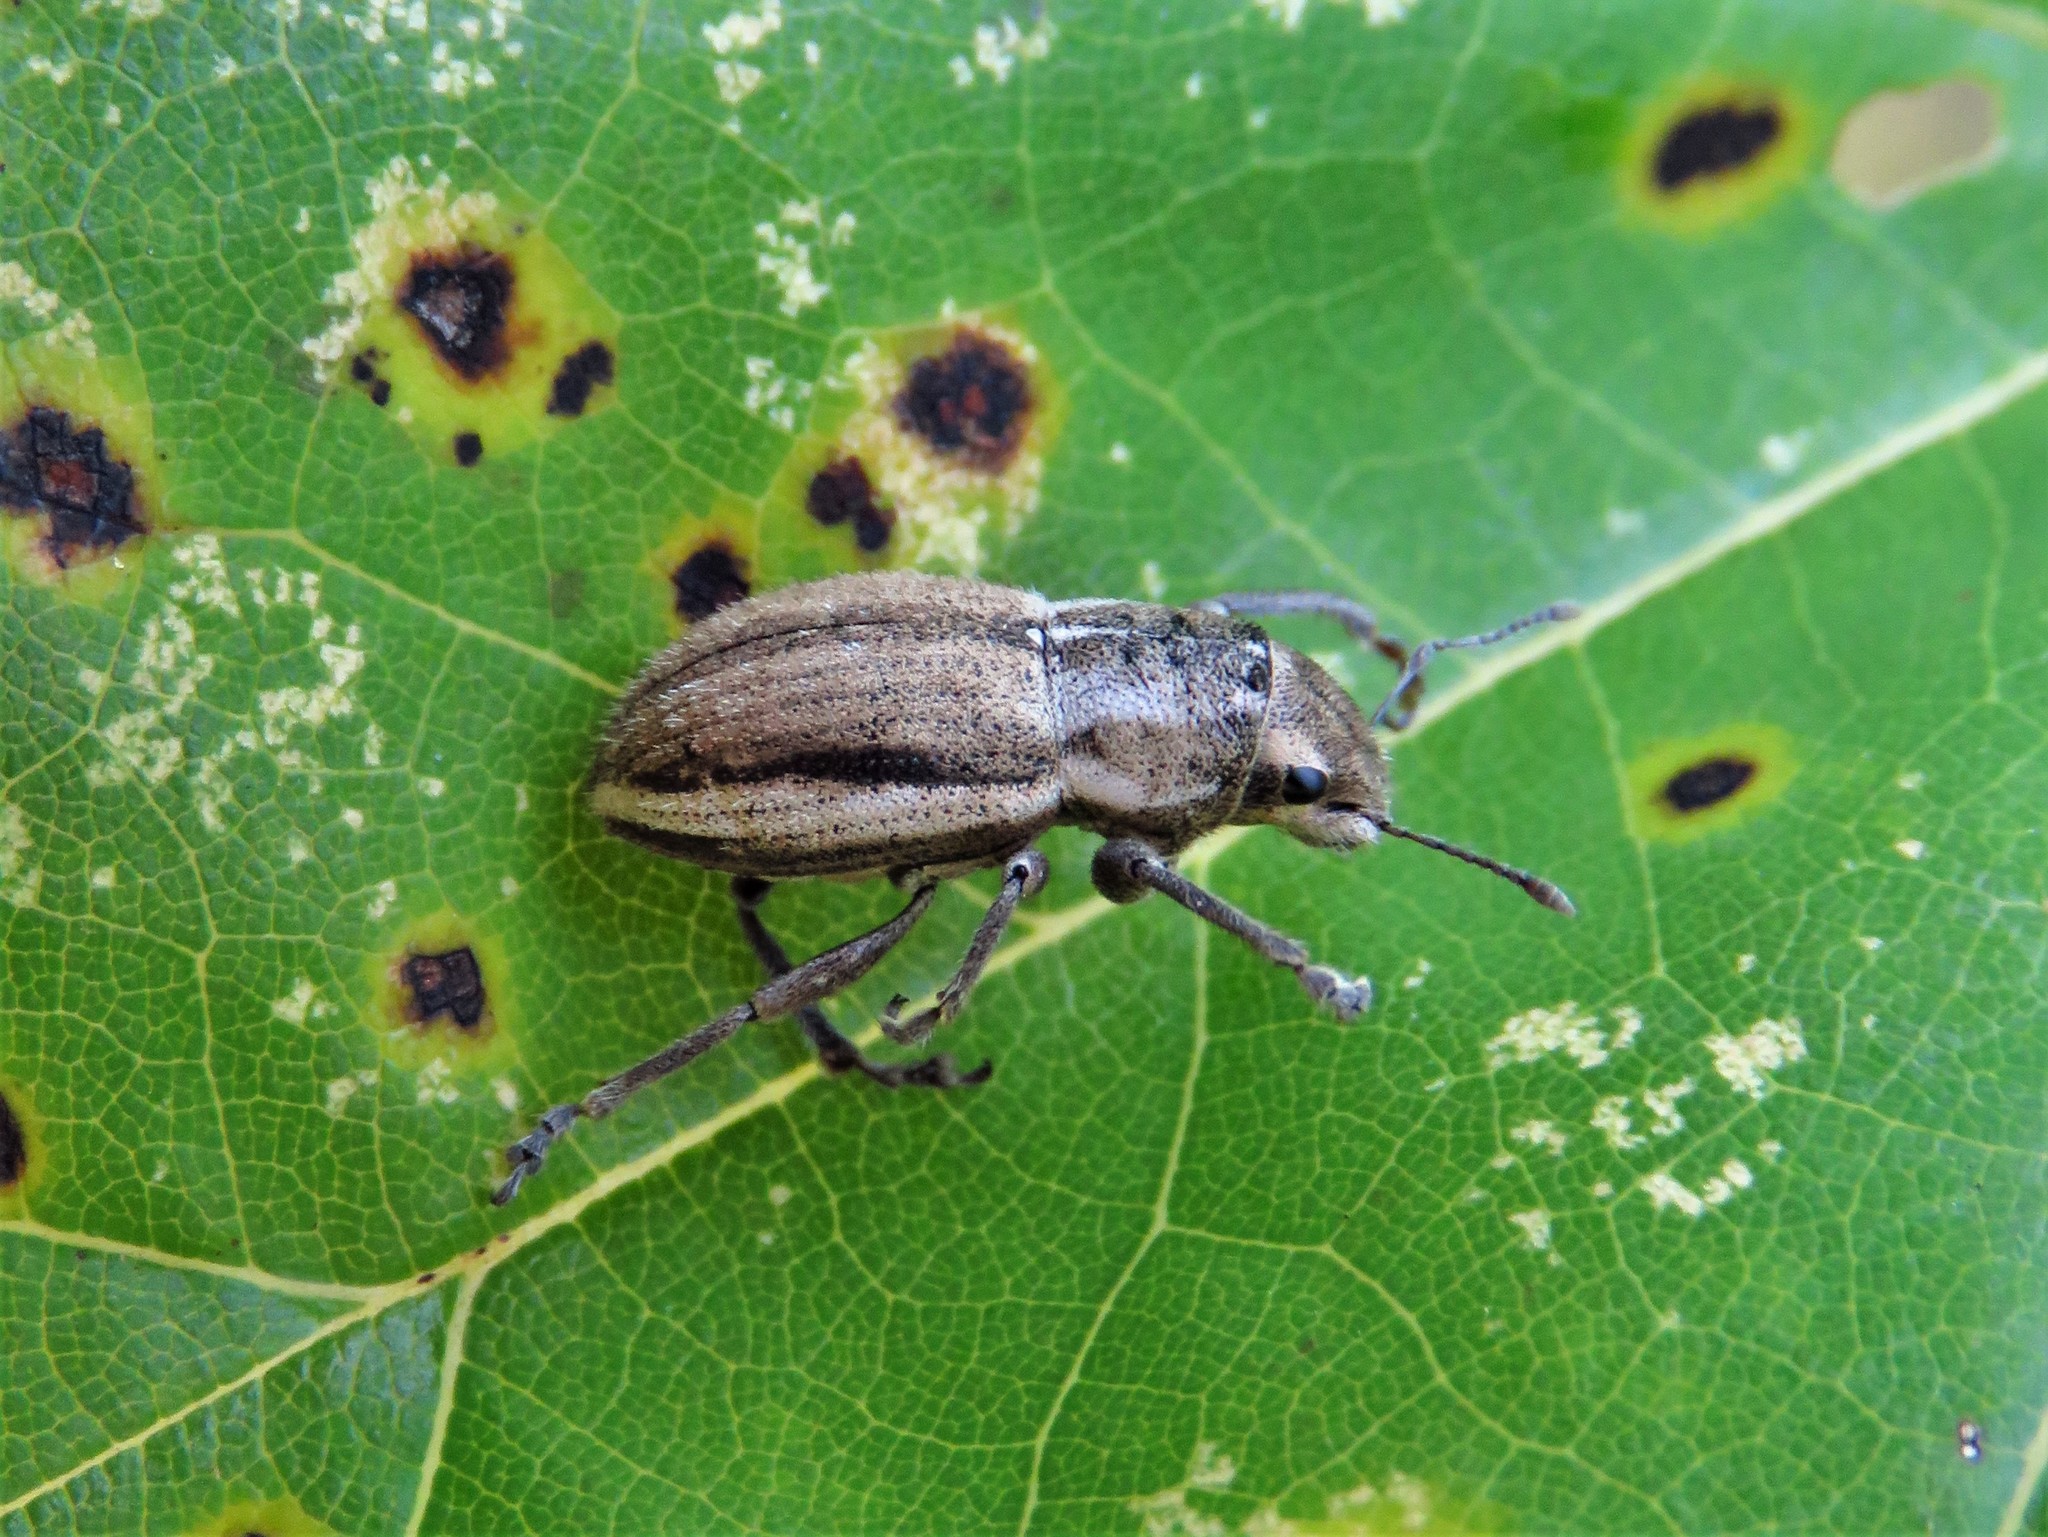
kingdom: Animalia
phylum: Arthropoda
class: Insecta
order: Coleoptera
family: Curculionidae
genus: Naupactus
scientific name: Naupactus peregrinus
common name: Whitefringed beetle
